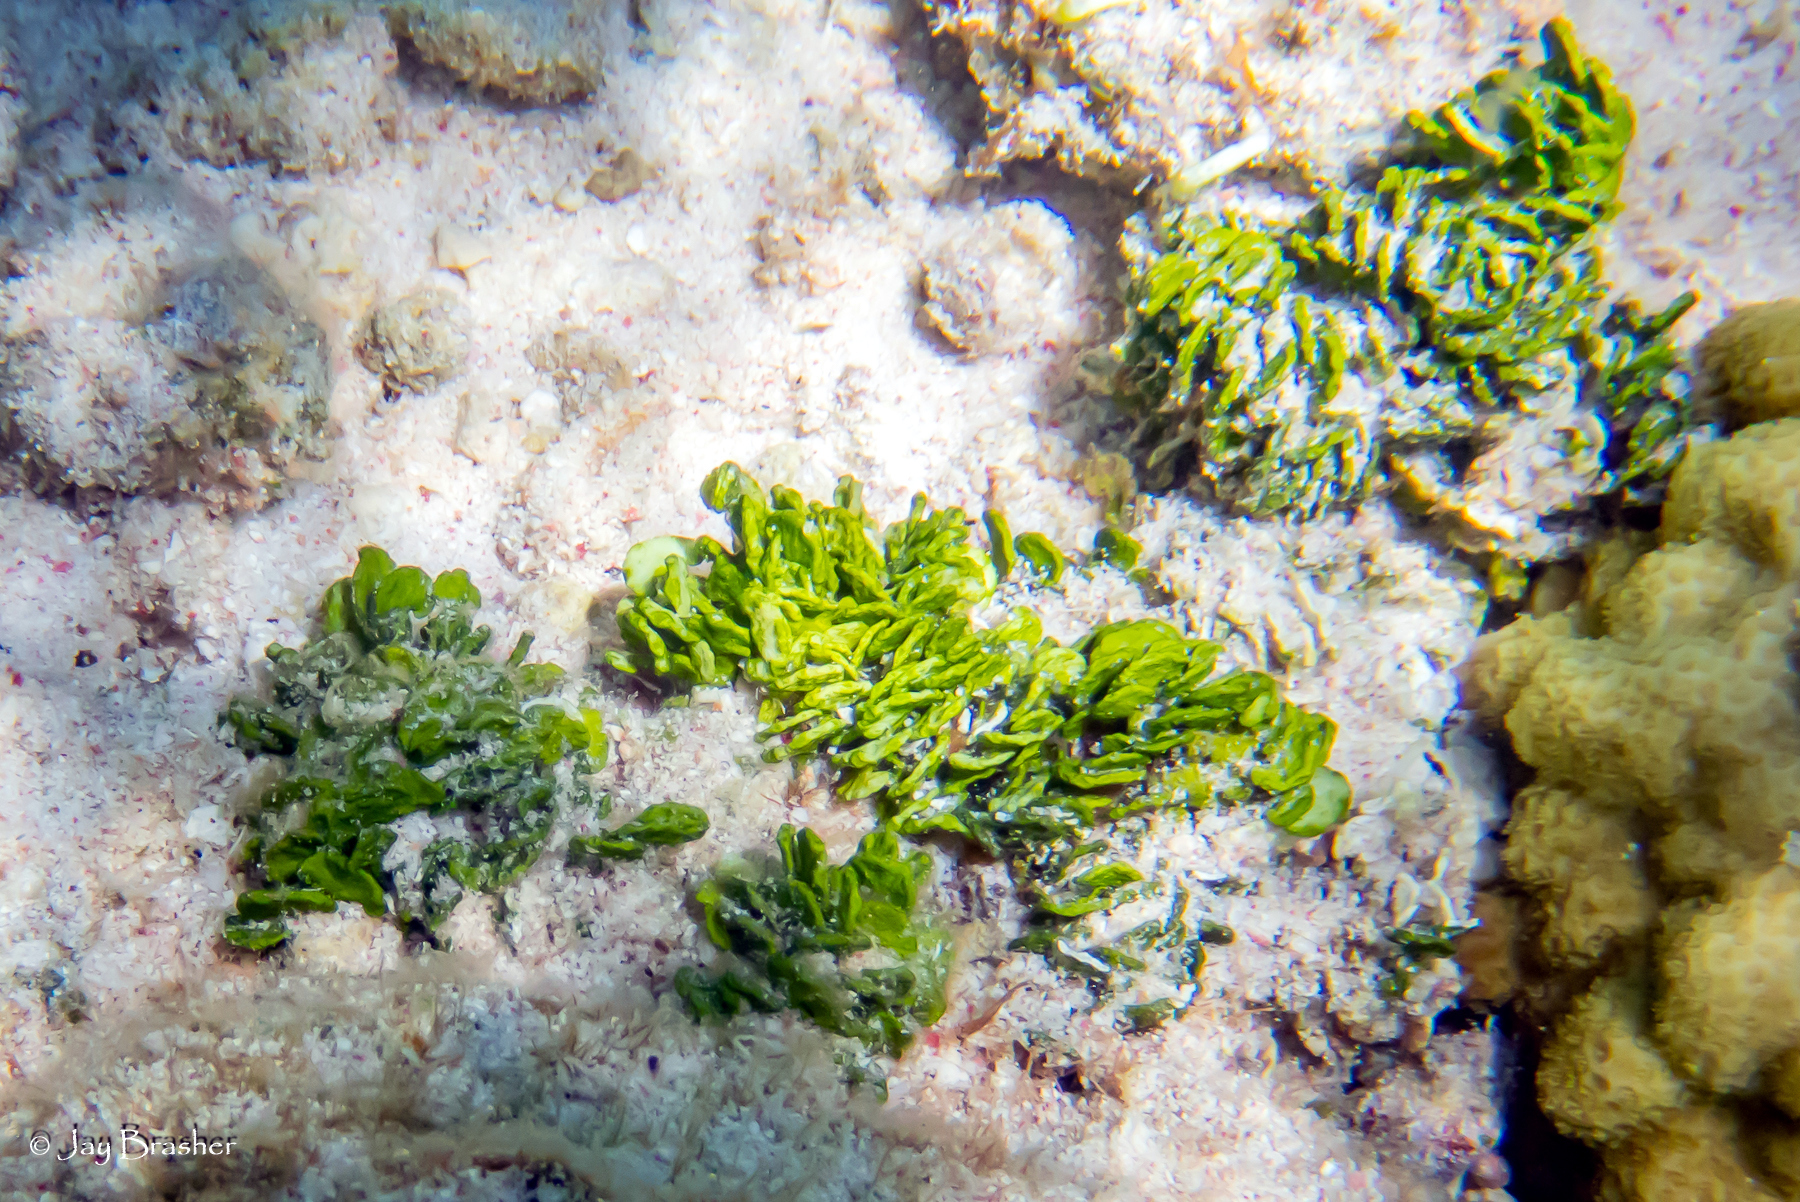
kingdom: Plantae
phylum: Chlorophyta
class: Ulvophyceae
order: Bryopsidales
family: Halimedaceae
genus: Halimeda
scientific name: Halimeda opuntia
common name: Watercress algae
